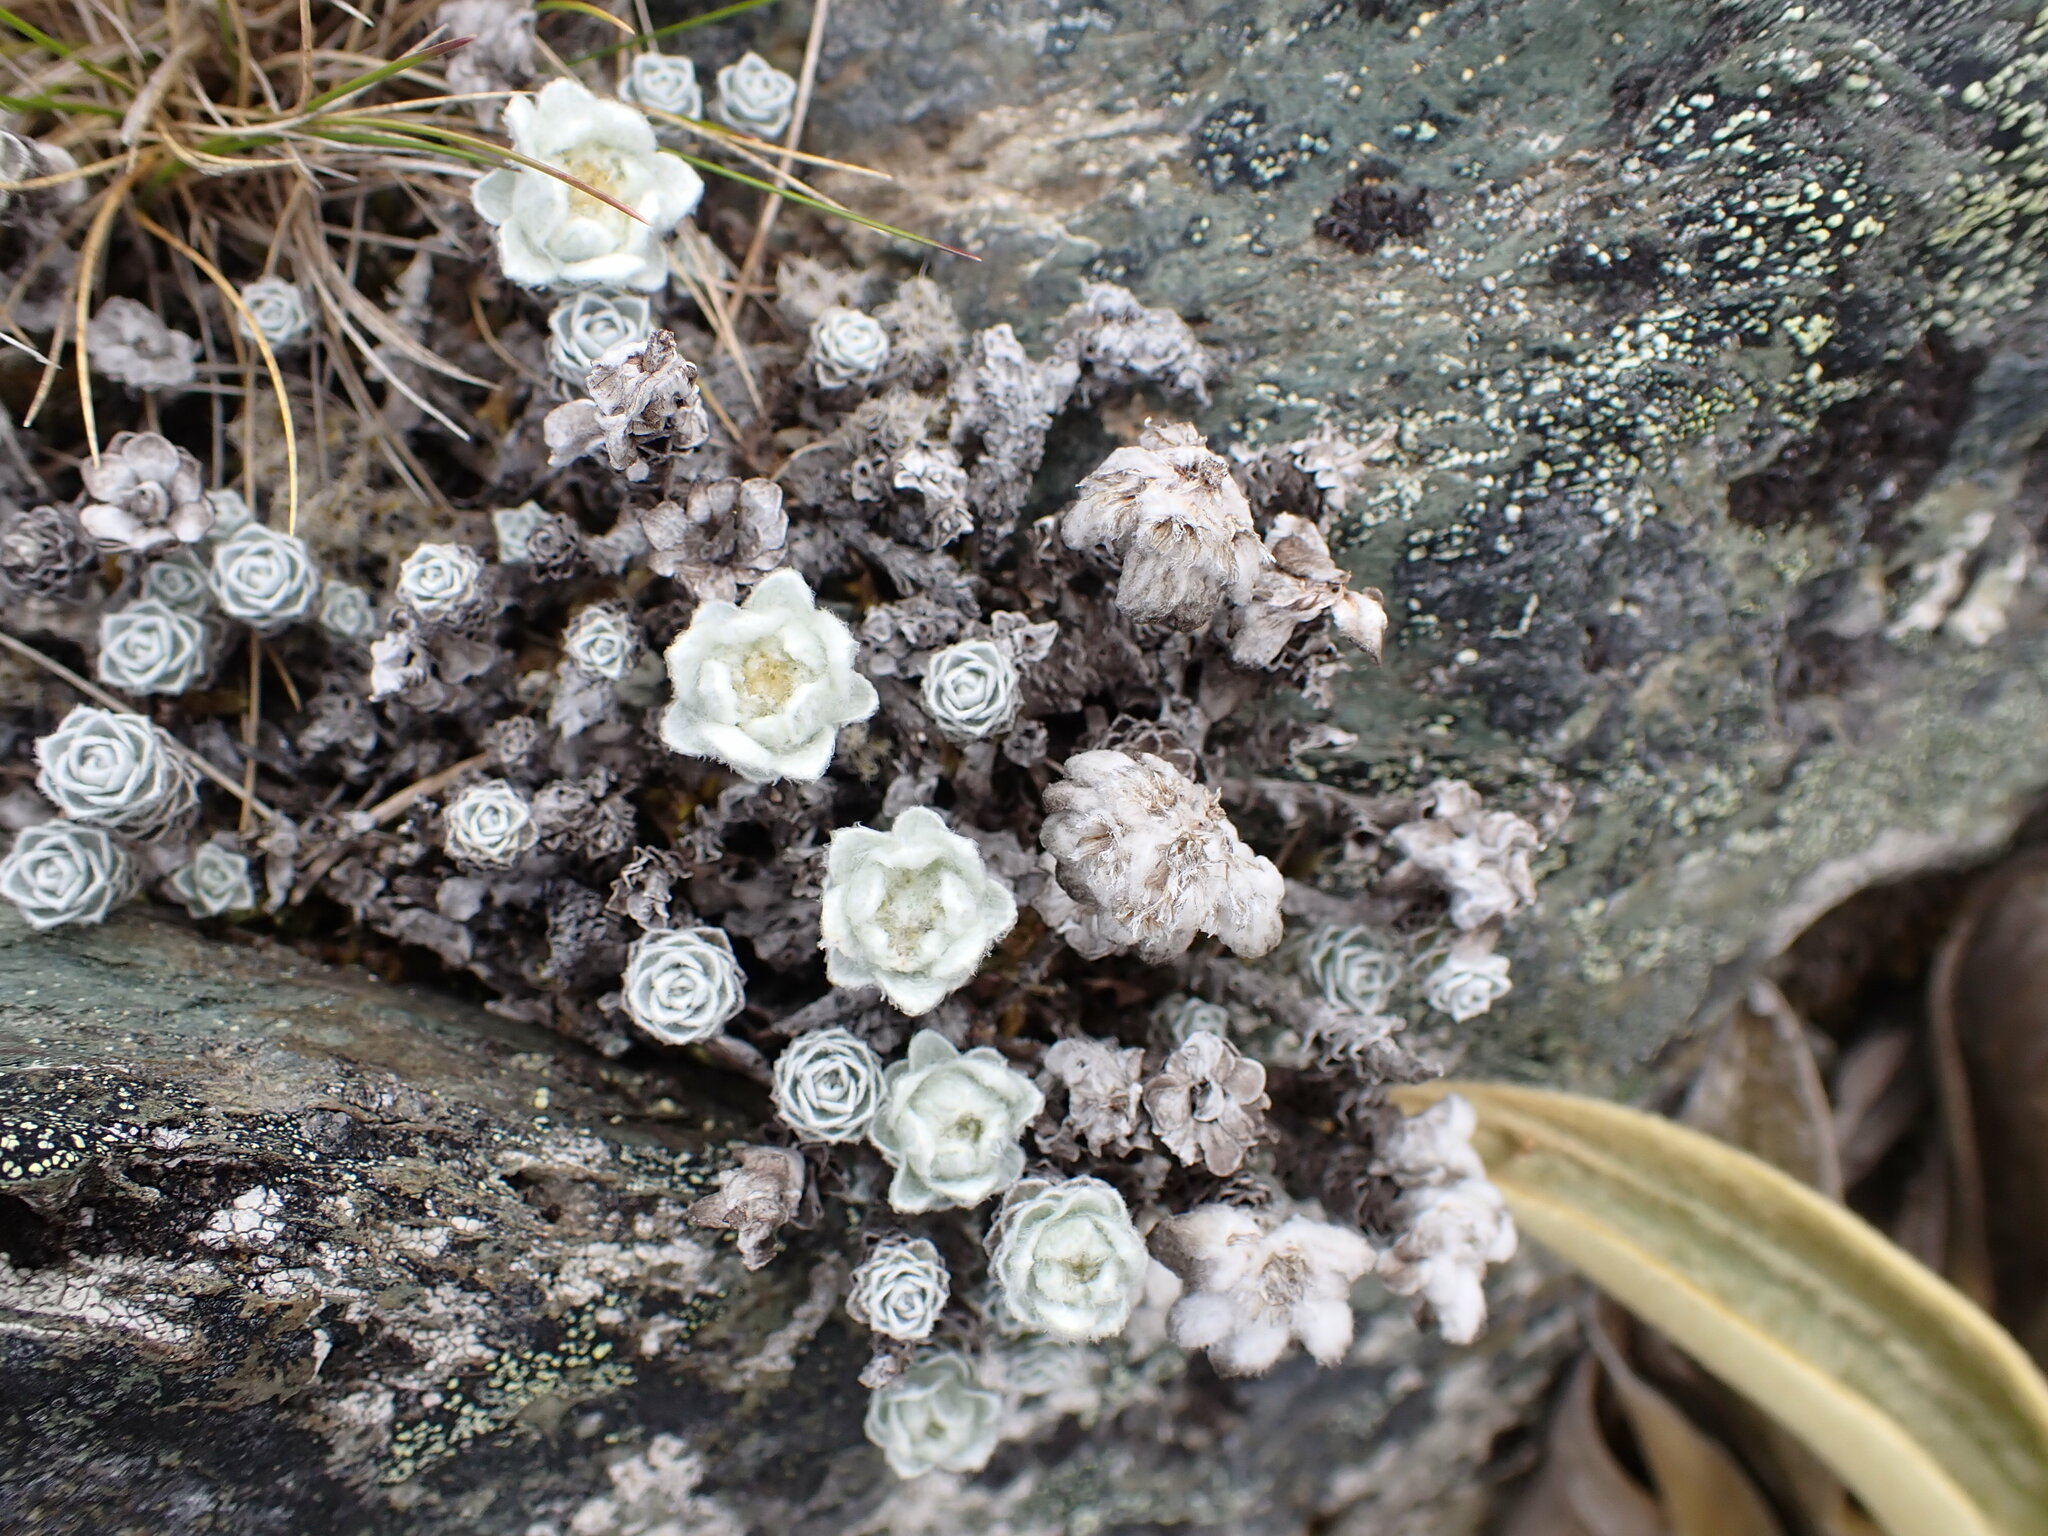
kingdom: Plantae
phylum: Tracheophyta
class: Magnoliopsida
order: Asterales
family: Asteraceae
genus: Leucogenes
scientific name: Leucogenes grandiceps
